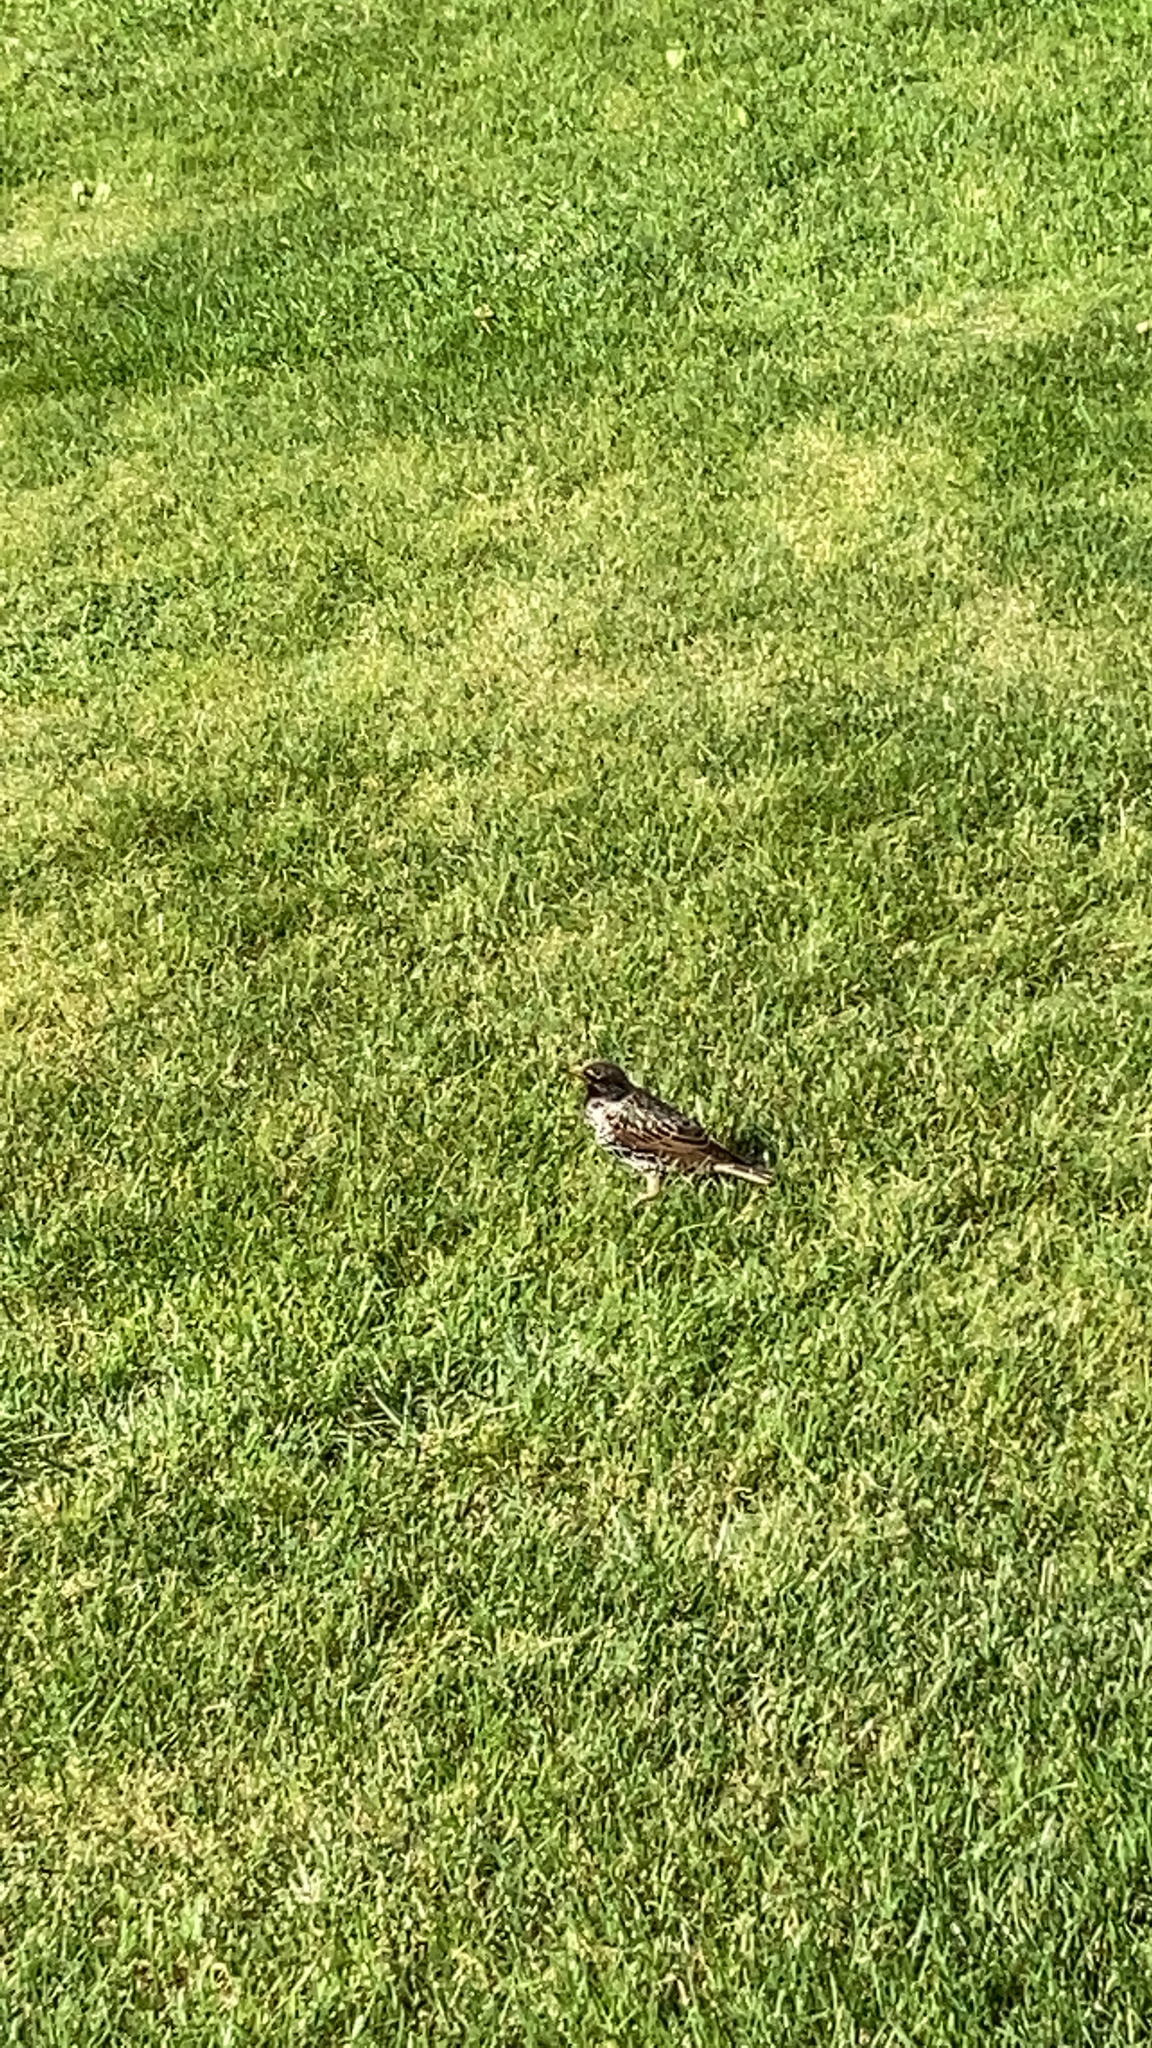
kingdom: Animalia
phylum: Chordata
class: Aves
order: Passeriformes
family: Sturnidae
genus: Sturnus
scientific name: Sturnus vulgaris
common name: Common starling
